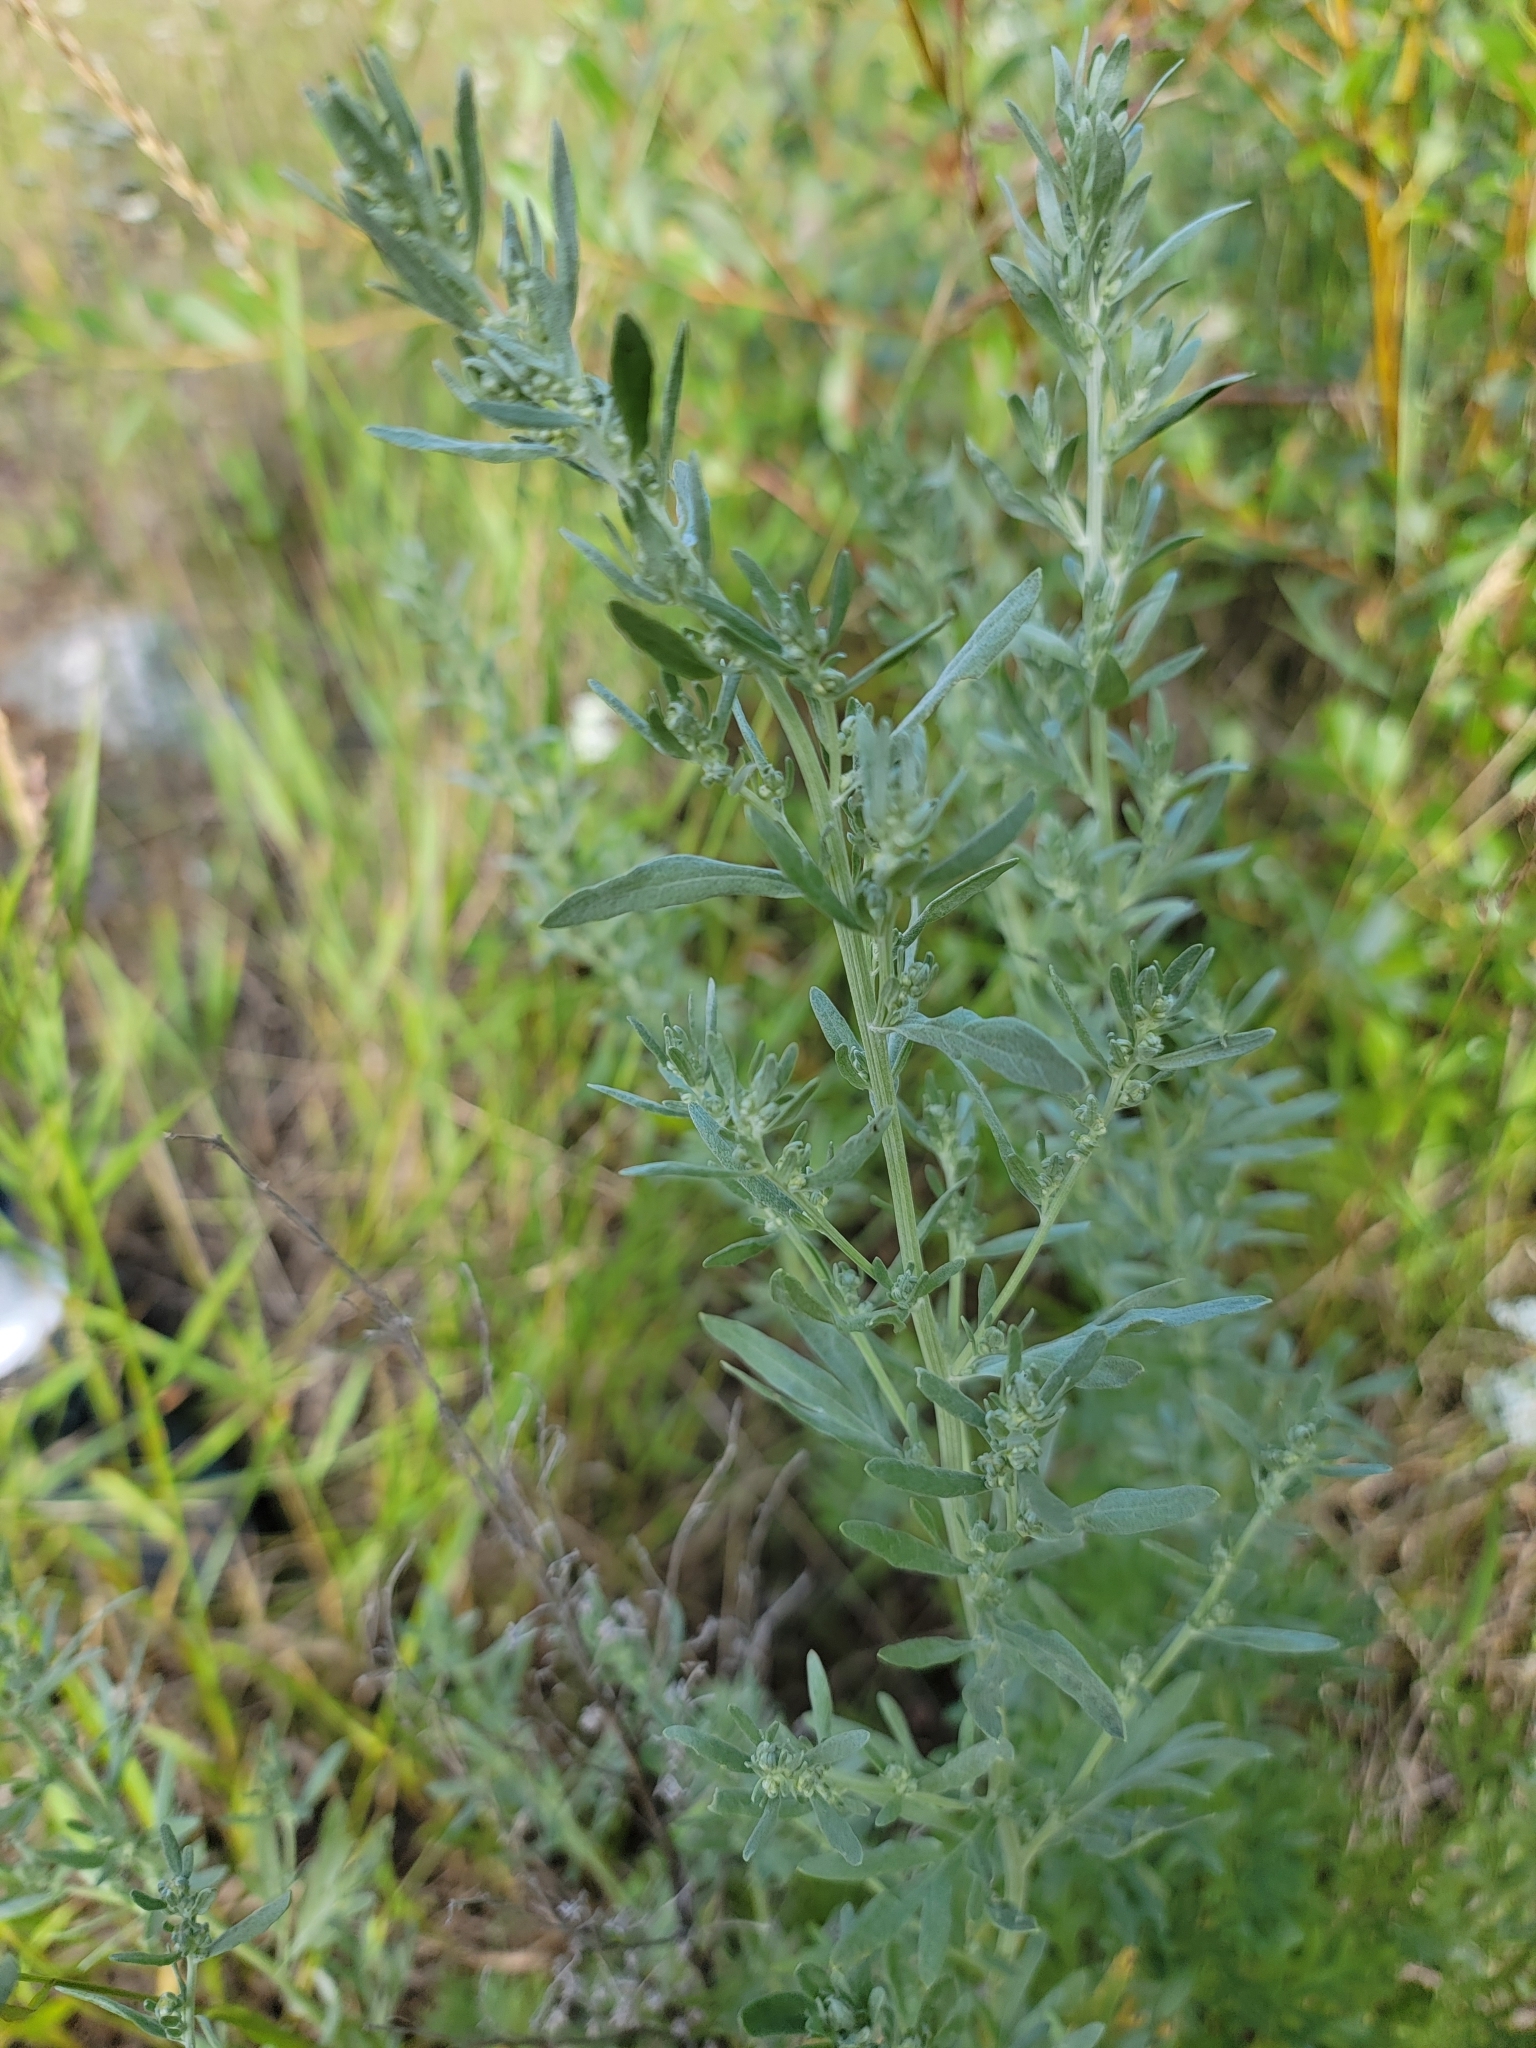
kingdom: Plantae
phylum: Tracheophyta
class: Magnoliopsida
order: Asterales
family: Asteraceae
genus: Artemisia
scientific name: Artemisia absinthium
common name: Wormwood
